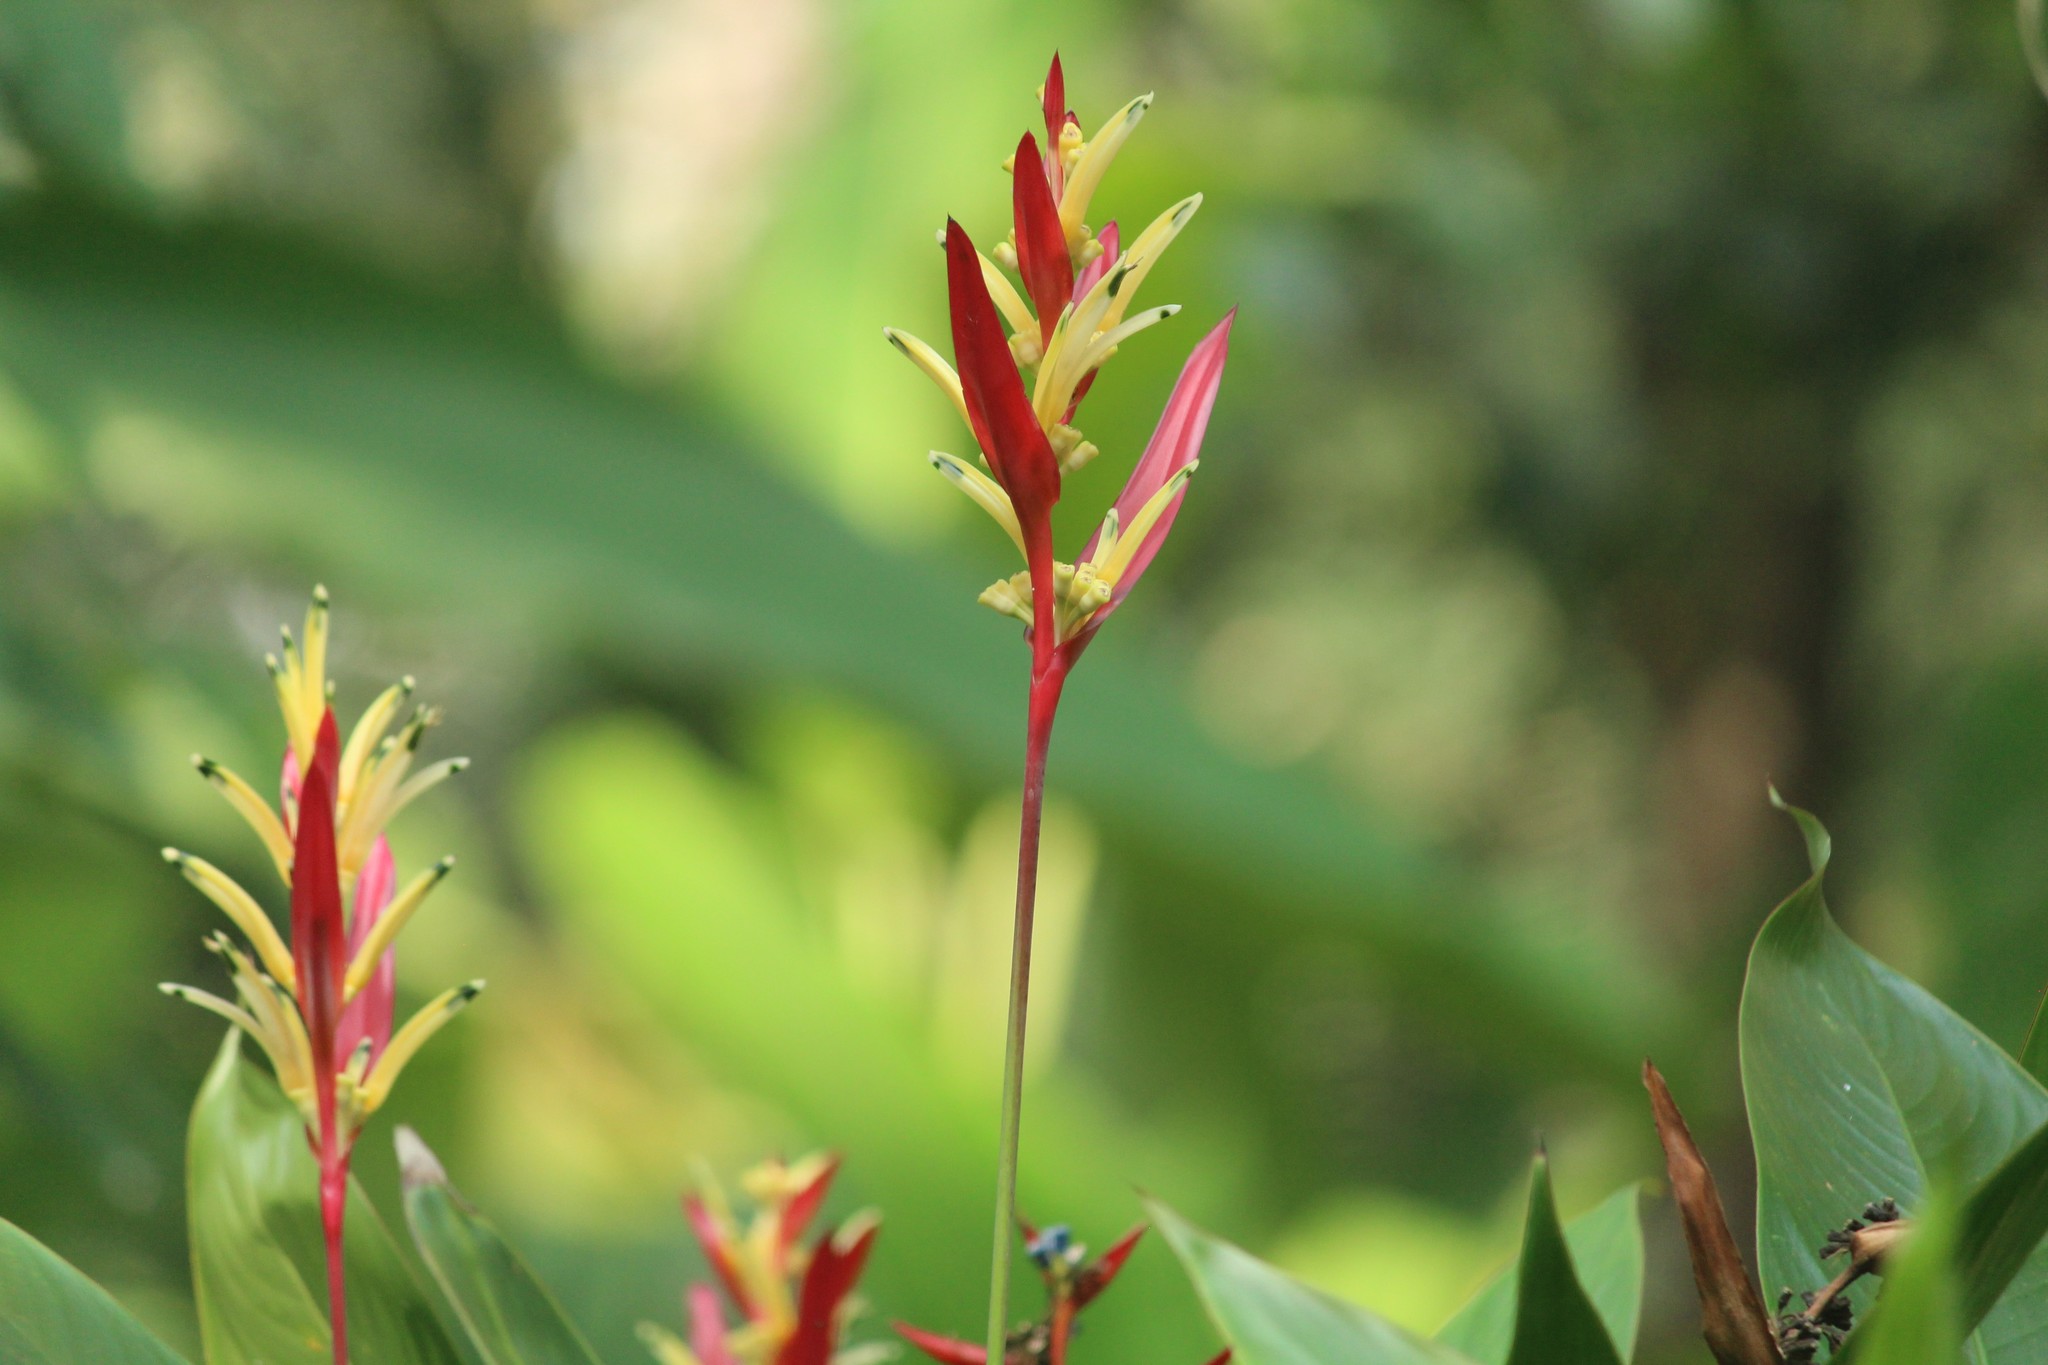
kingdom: Plantae
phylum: Tracheophyta
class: Liliopsida
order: Zingiberales
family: Heliconiaceae
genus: Heliconia
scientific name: Heliconia psittacorum
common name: Parrot's-flower
